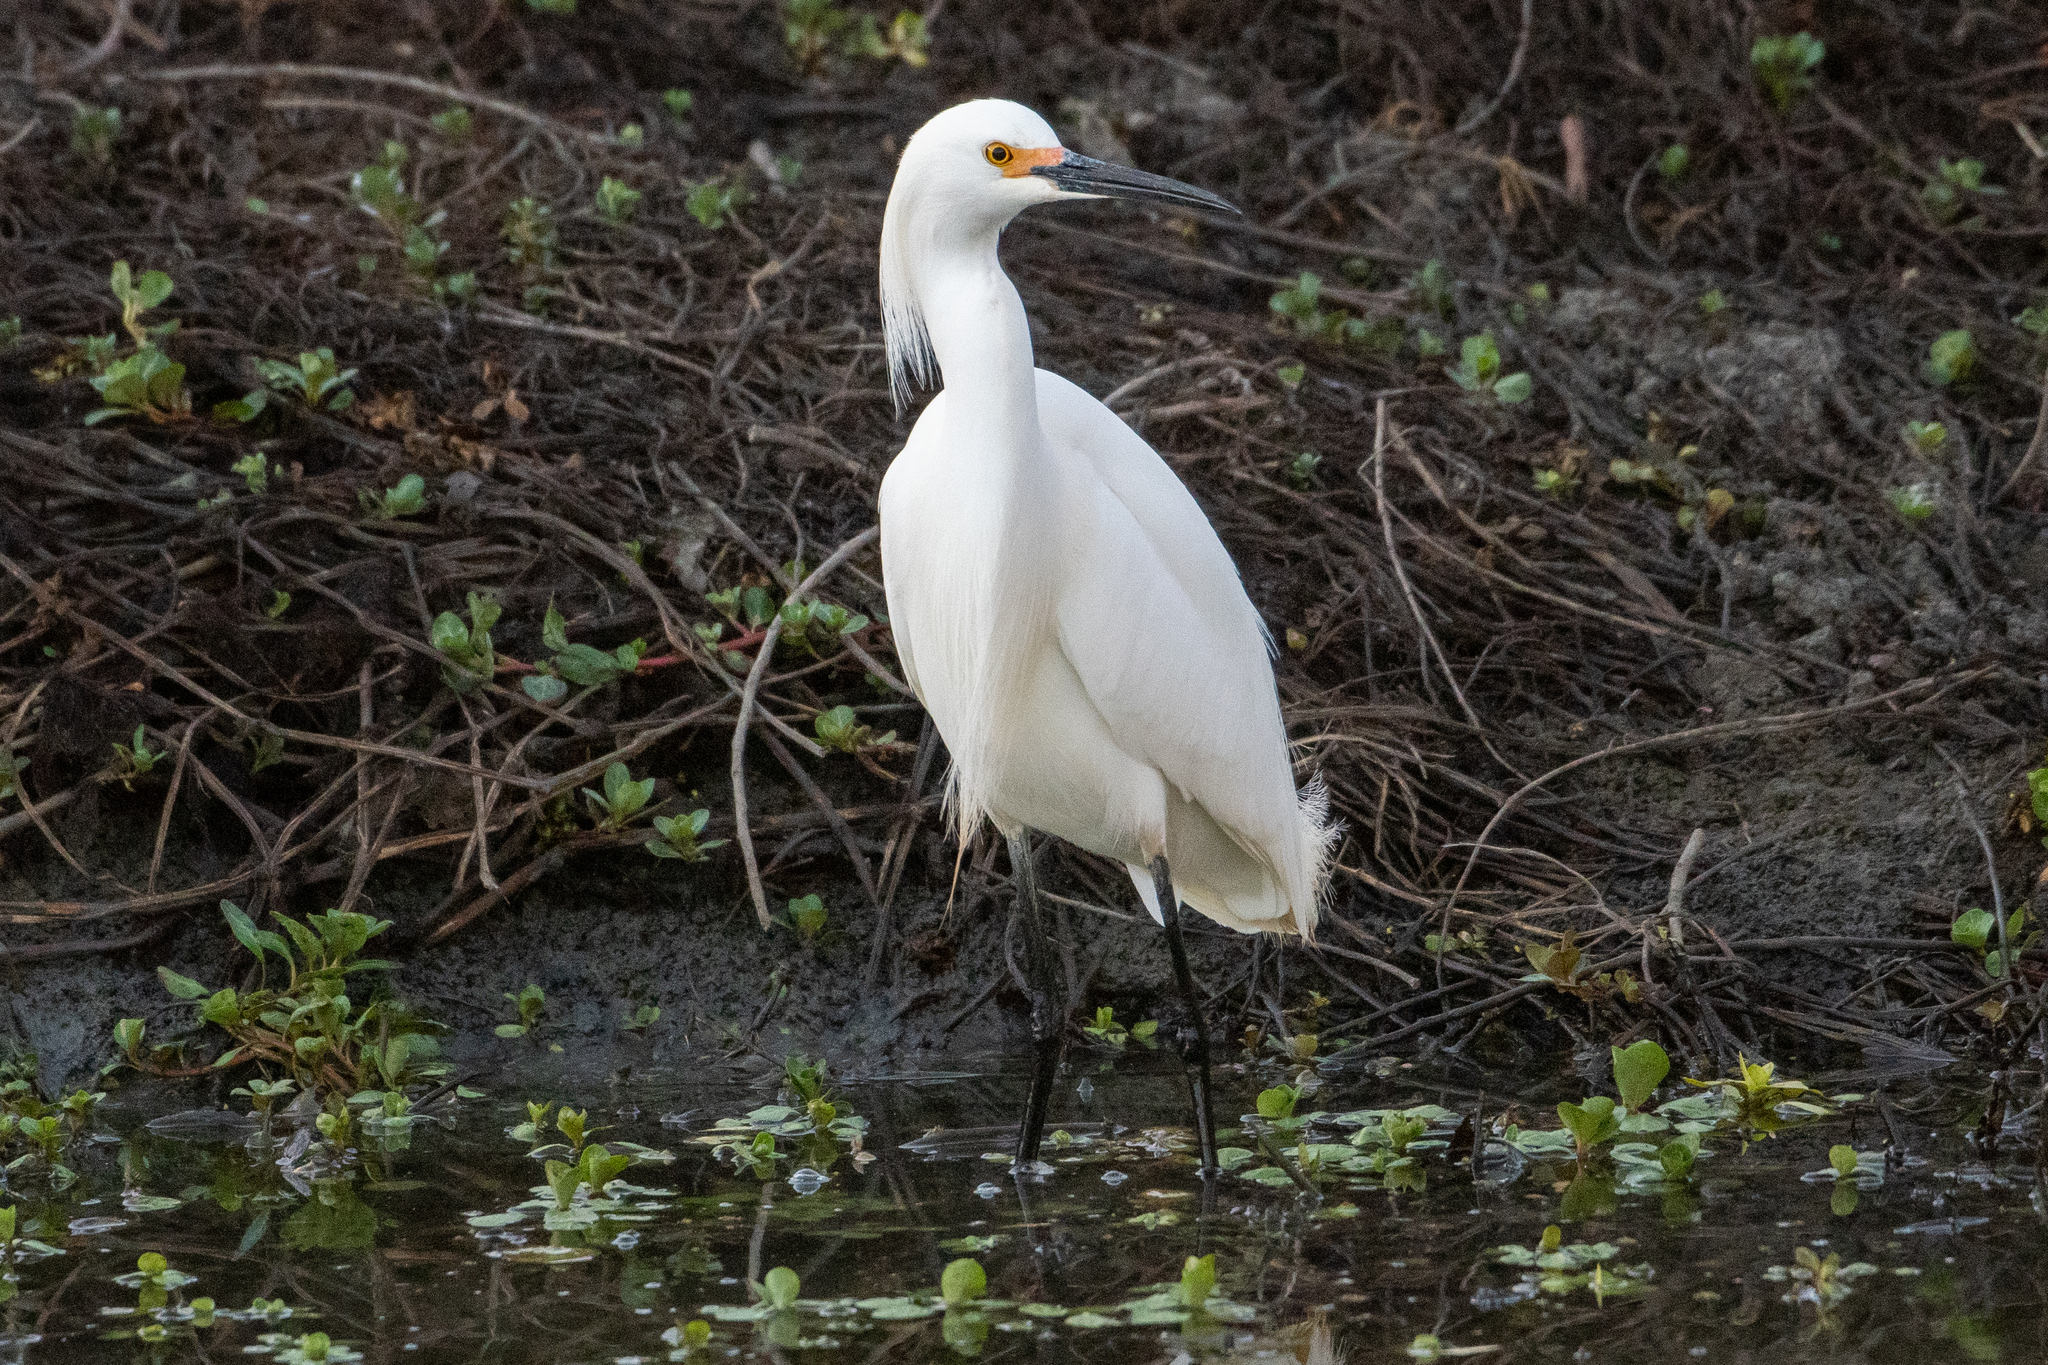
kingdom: Animalia
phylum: Chordata
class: Aves
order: Pelecaniformes
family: Ardeidae
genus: Egretta
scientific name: Egretta thula
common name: Snowy egret
